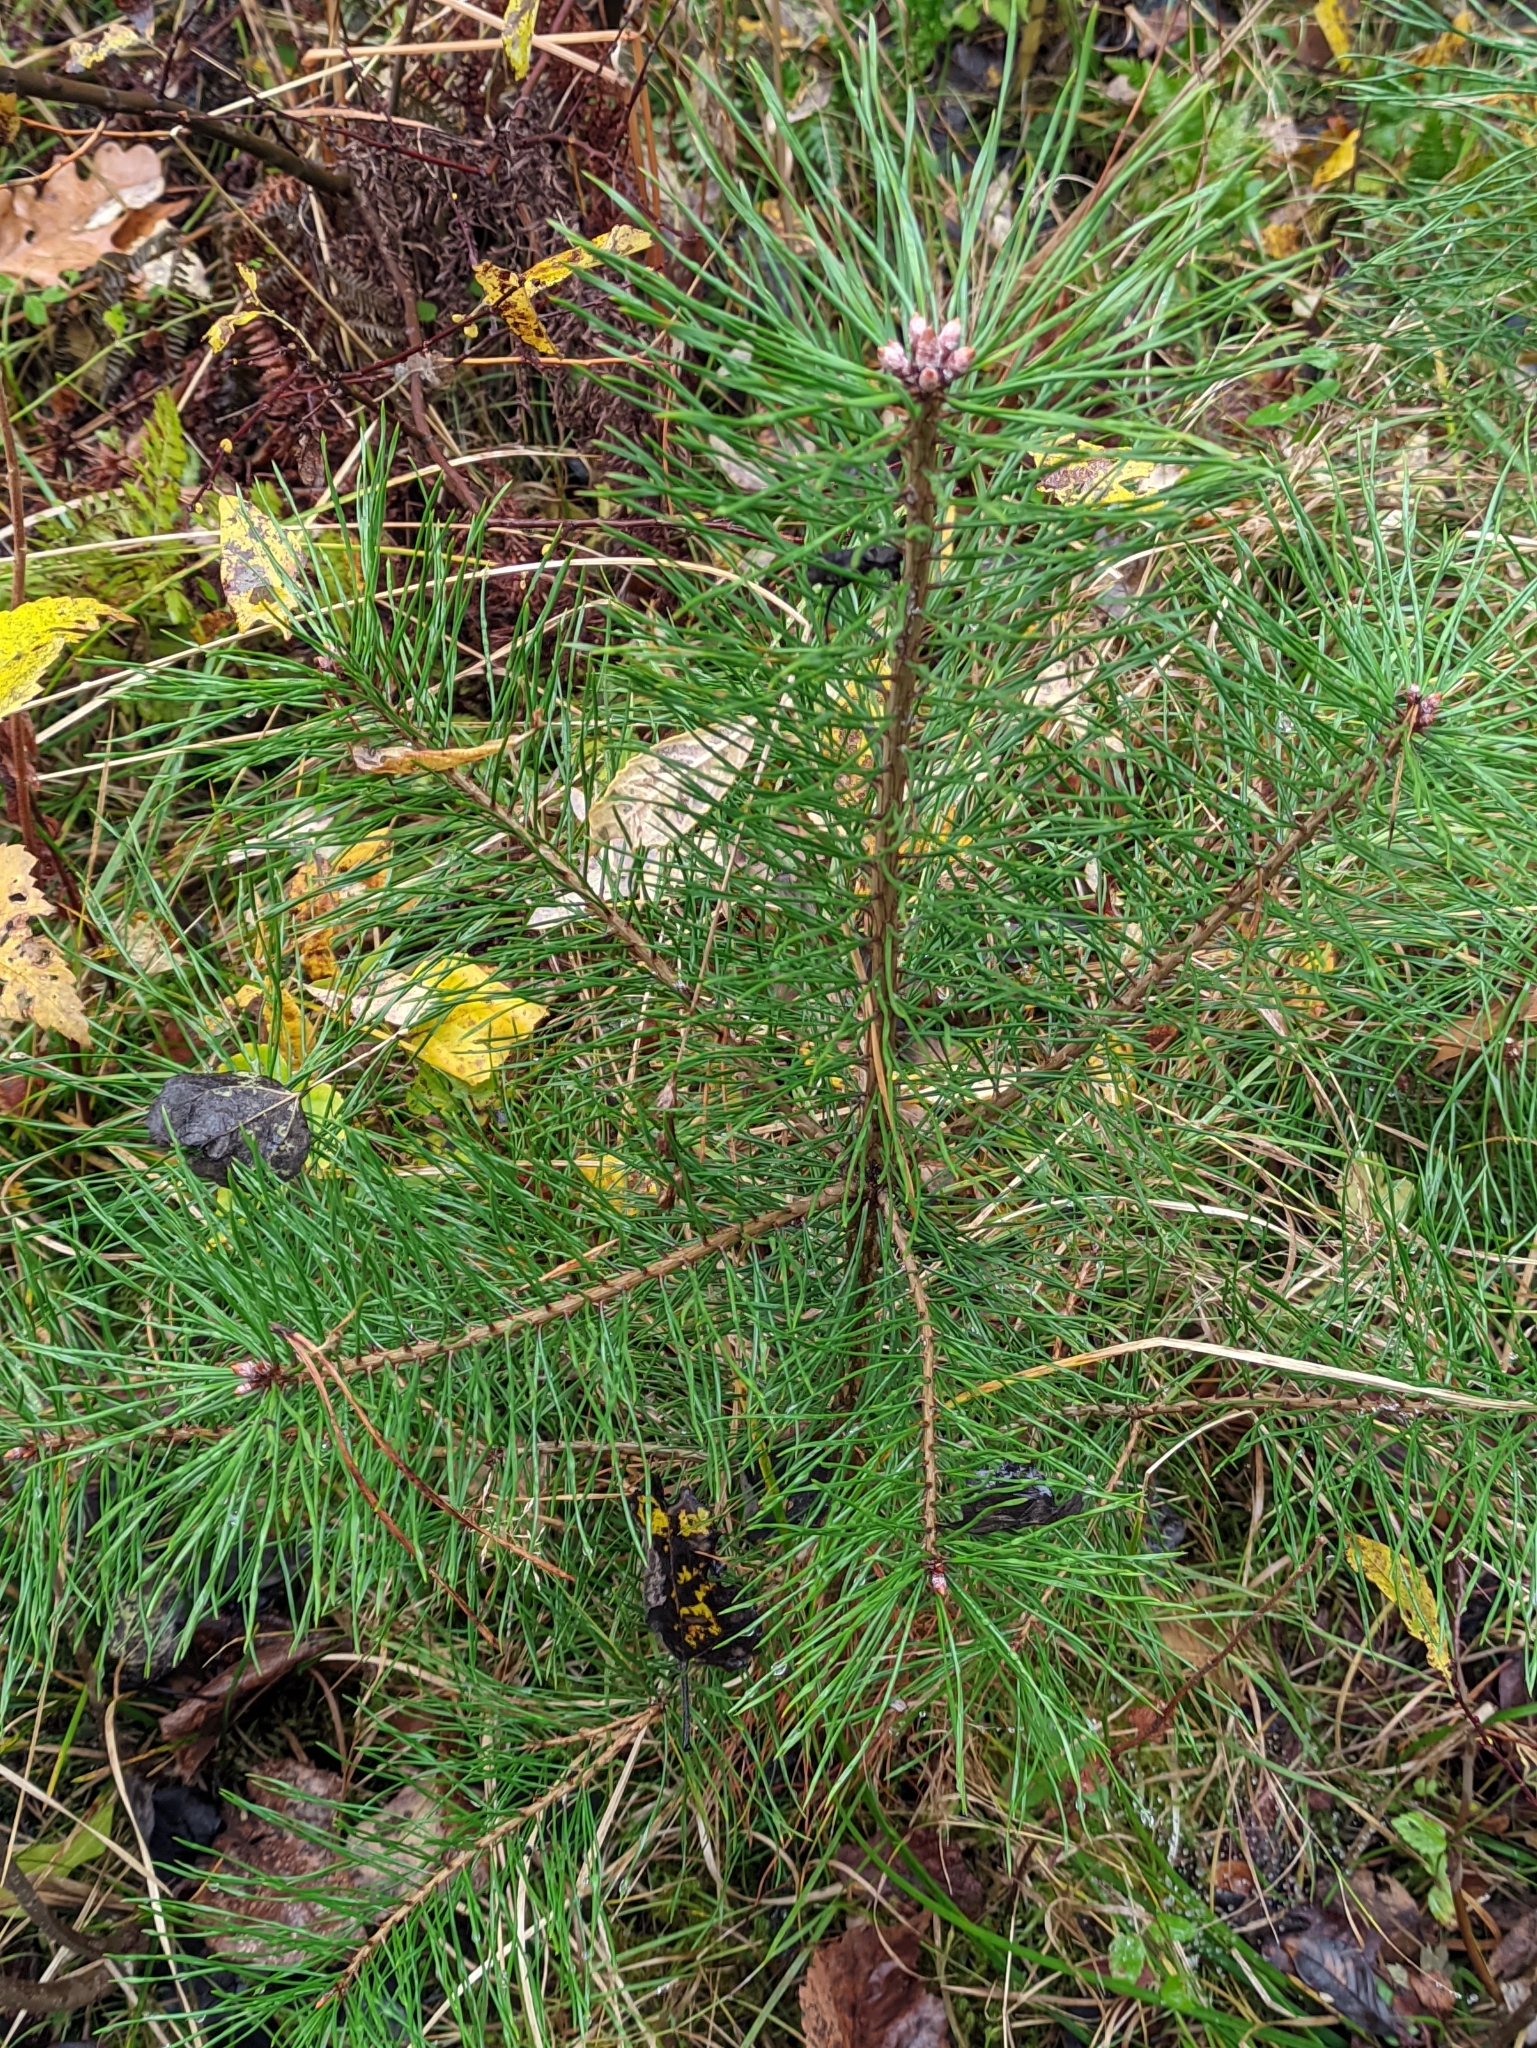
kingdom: Plantae
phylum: Tracheophyta
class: Pinopsida
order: Pinales
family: Pinaceae
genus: Pinus
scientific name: Pinus sylvestris
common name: Scots pine
